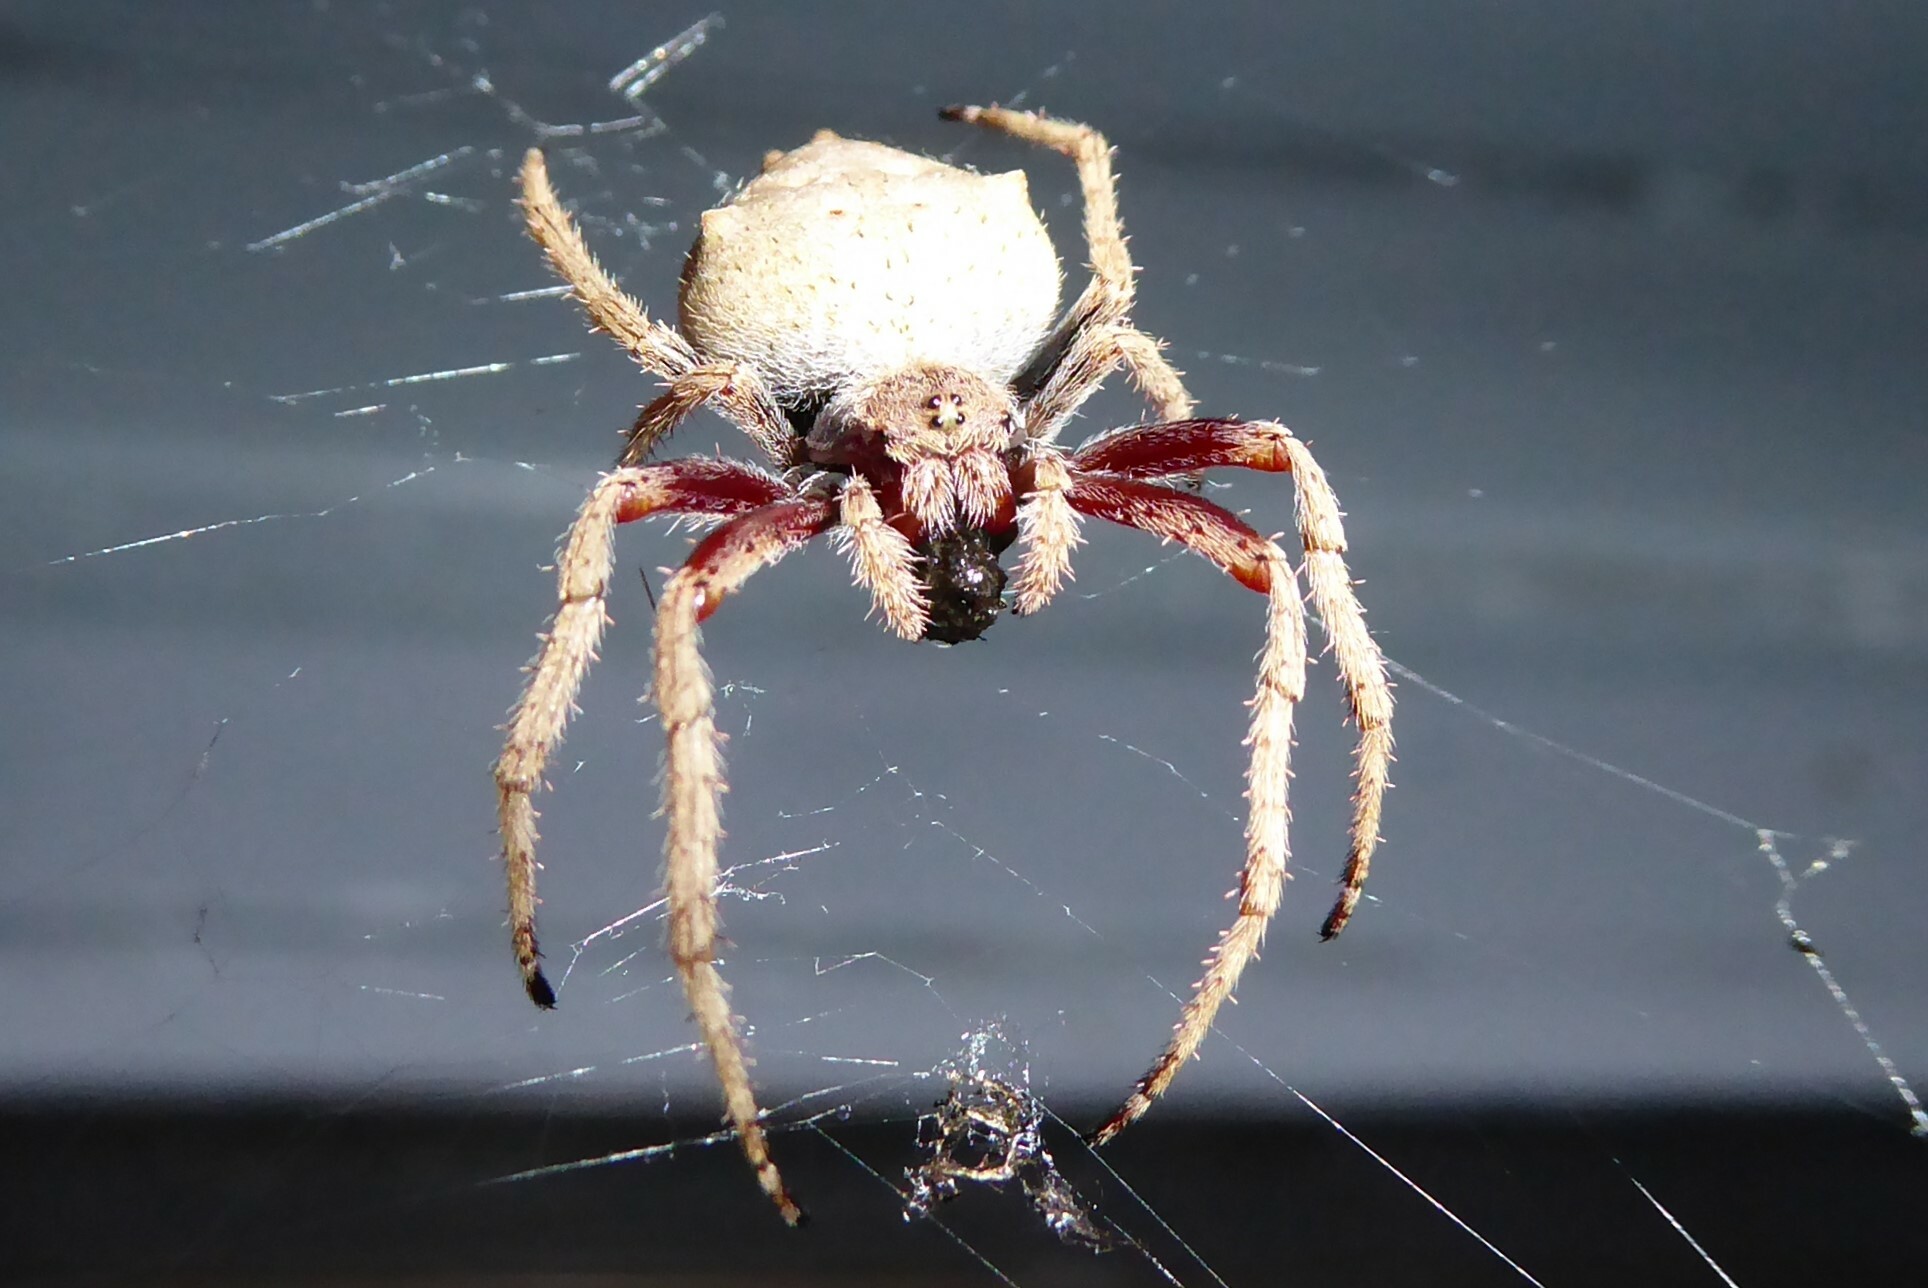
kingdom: Animalia
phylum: Arthropoda
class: Arachnida
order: Araneae
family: Araneidae
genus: Eriophora
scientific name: Eriophora pustulosa
